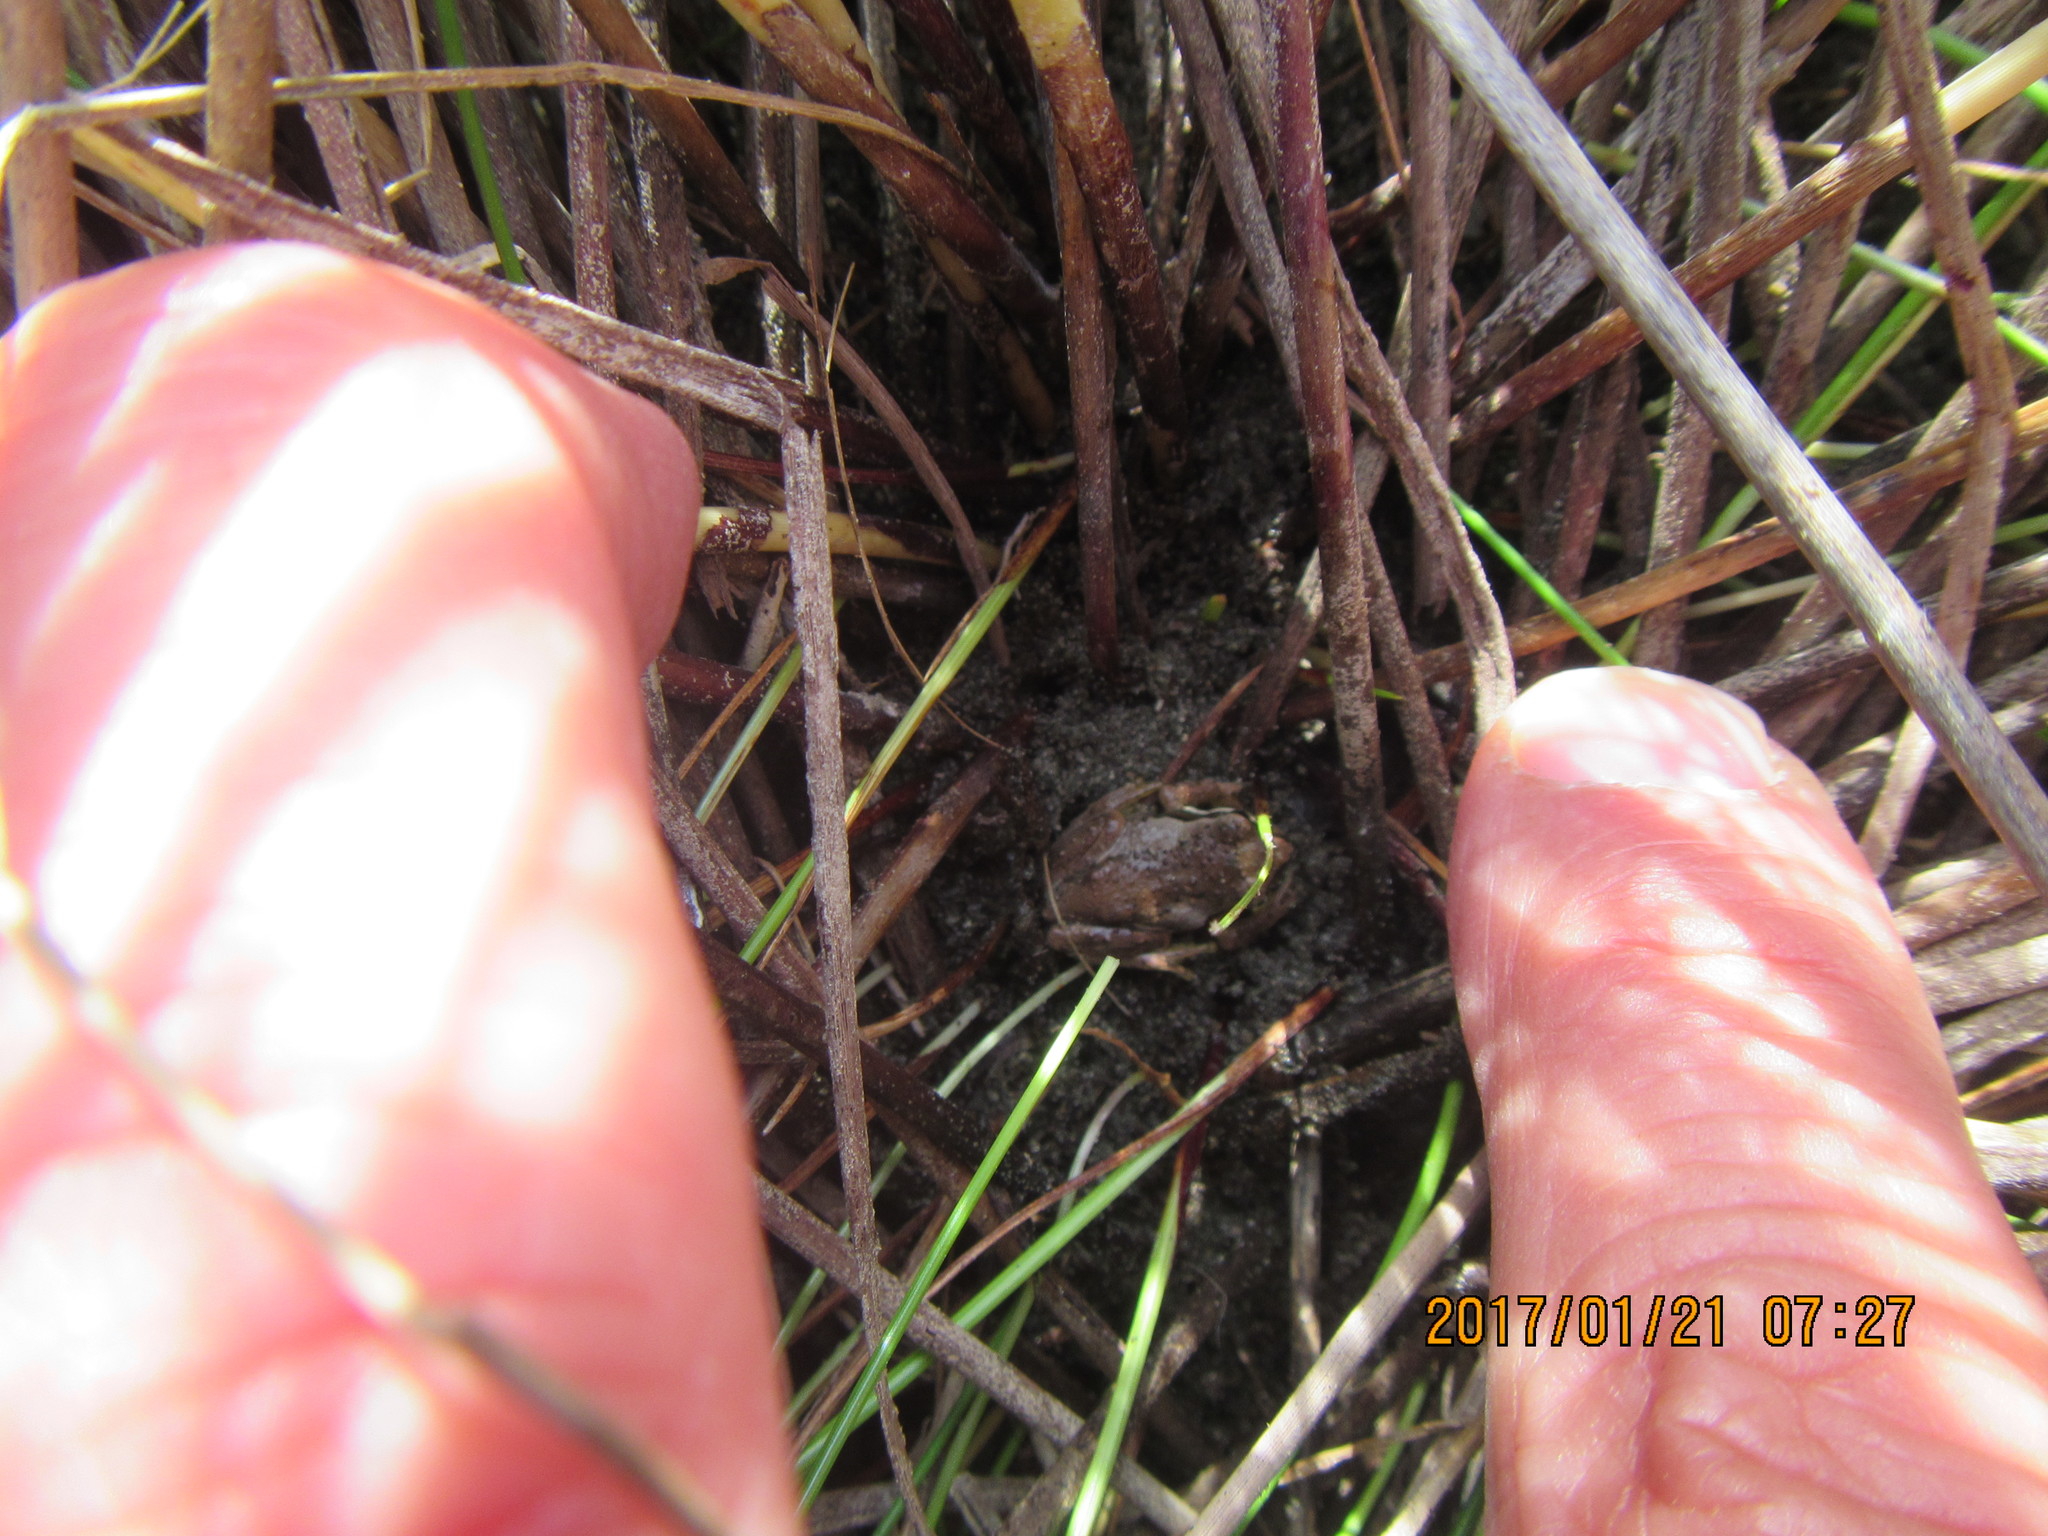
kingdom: Animalia
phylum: Chordata
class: Amphibia
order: Anura
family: Pelodryadidae
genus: Litoria
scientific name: Litoria ewingii
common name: Southern brown tree frog
